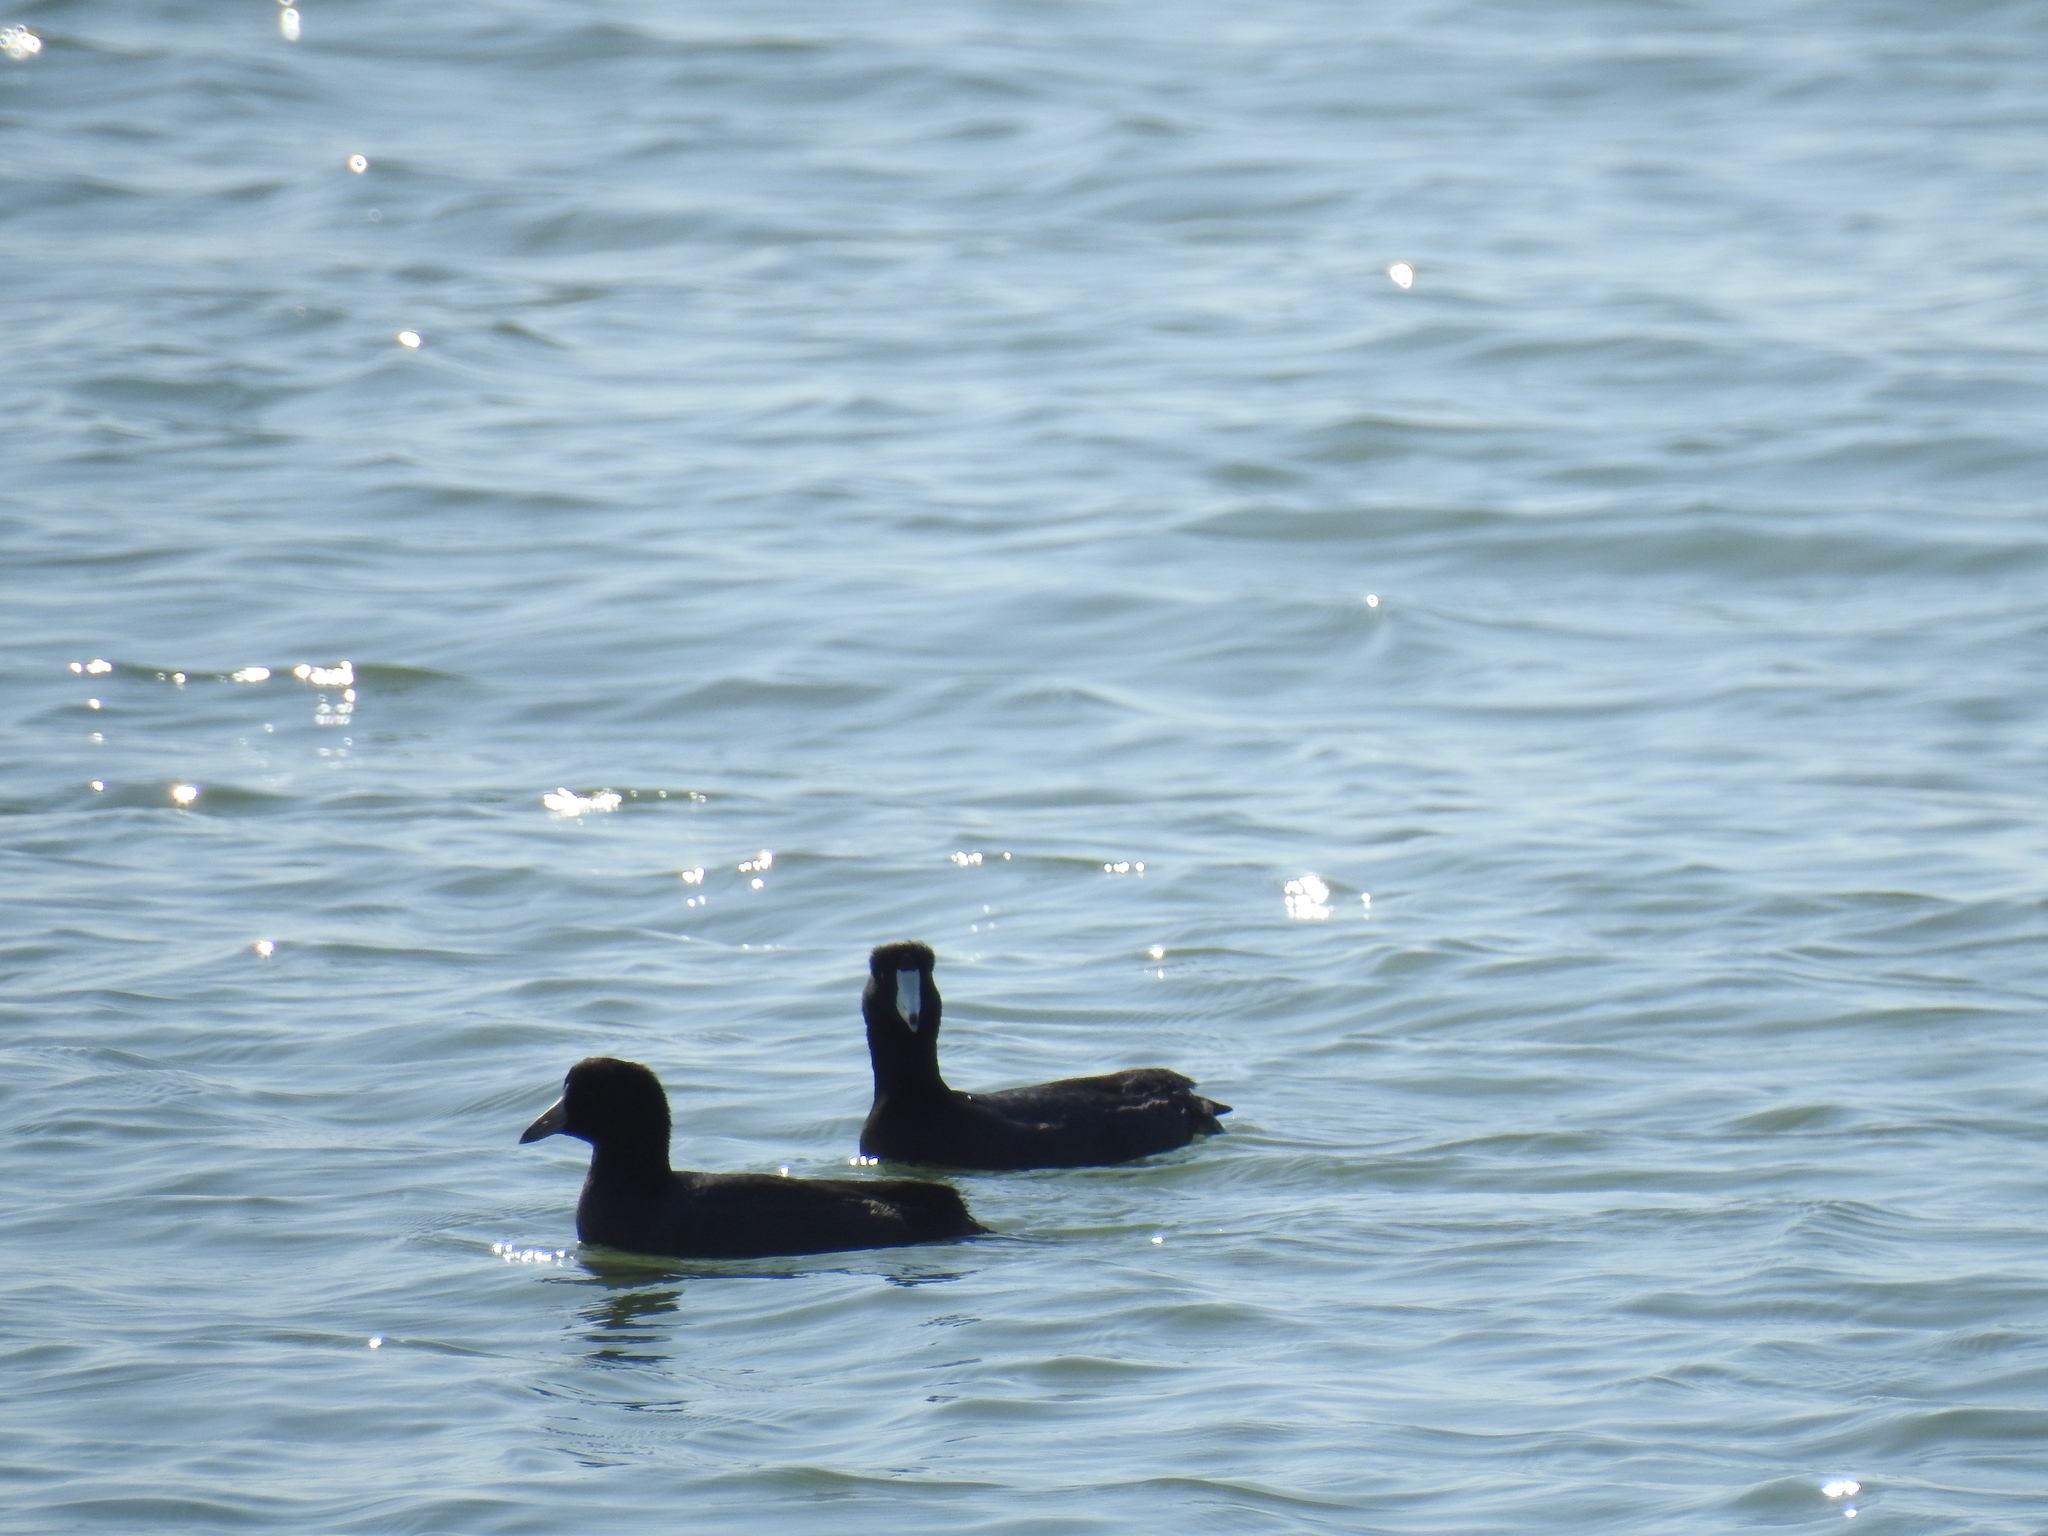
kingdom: Animalia
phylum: Chordata
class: Aves
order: Gruiformes
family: Rallidae
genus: Fulica
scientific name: Fulica americana
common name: American coot
